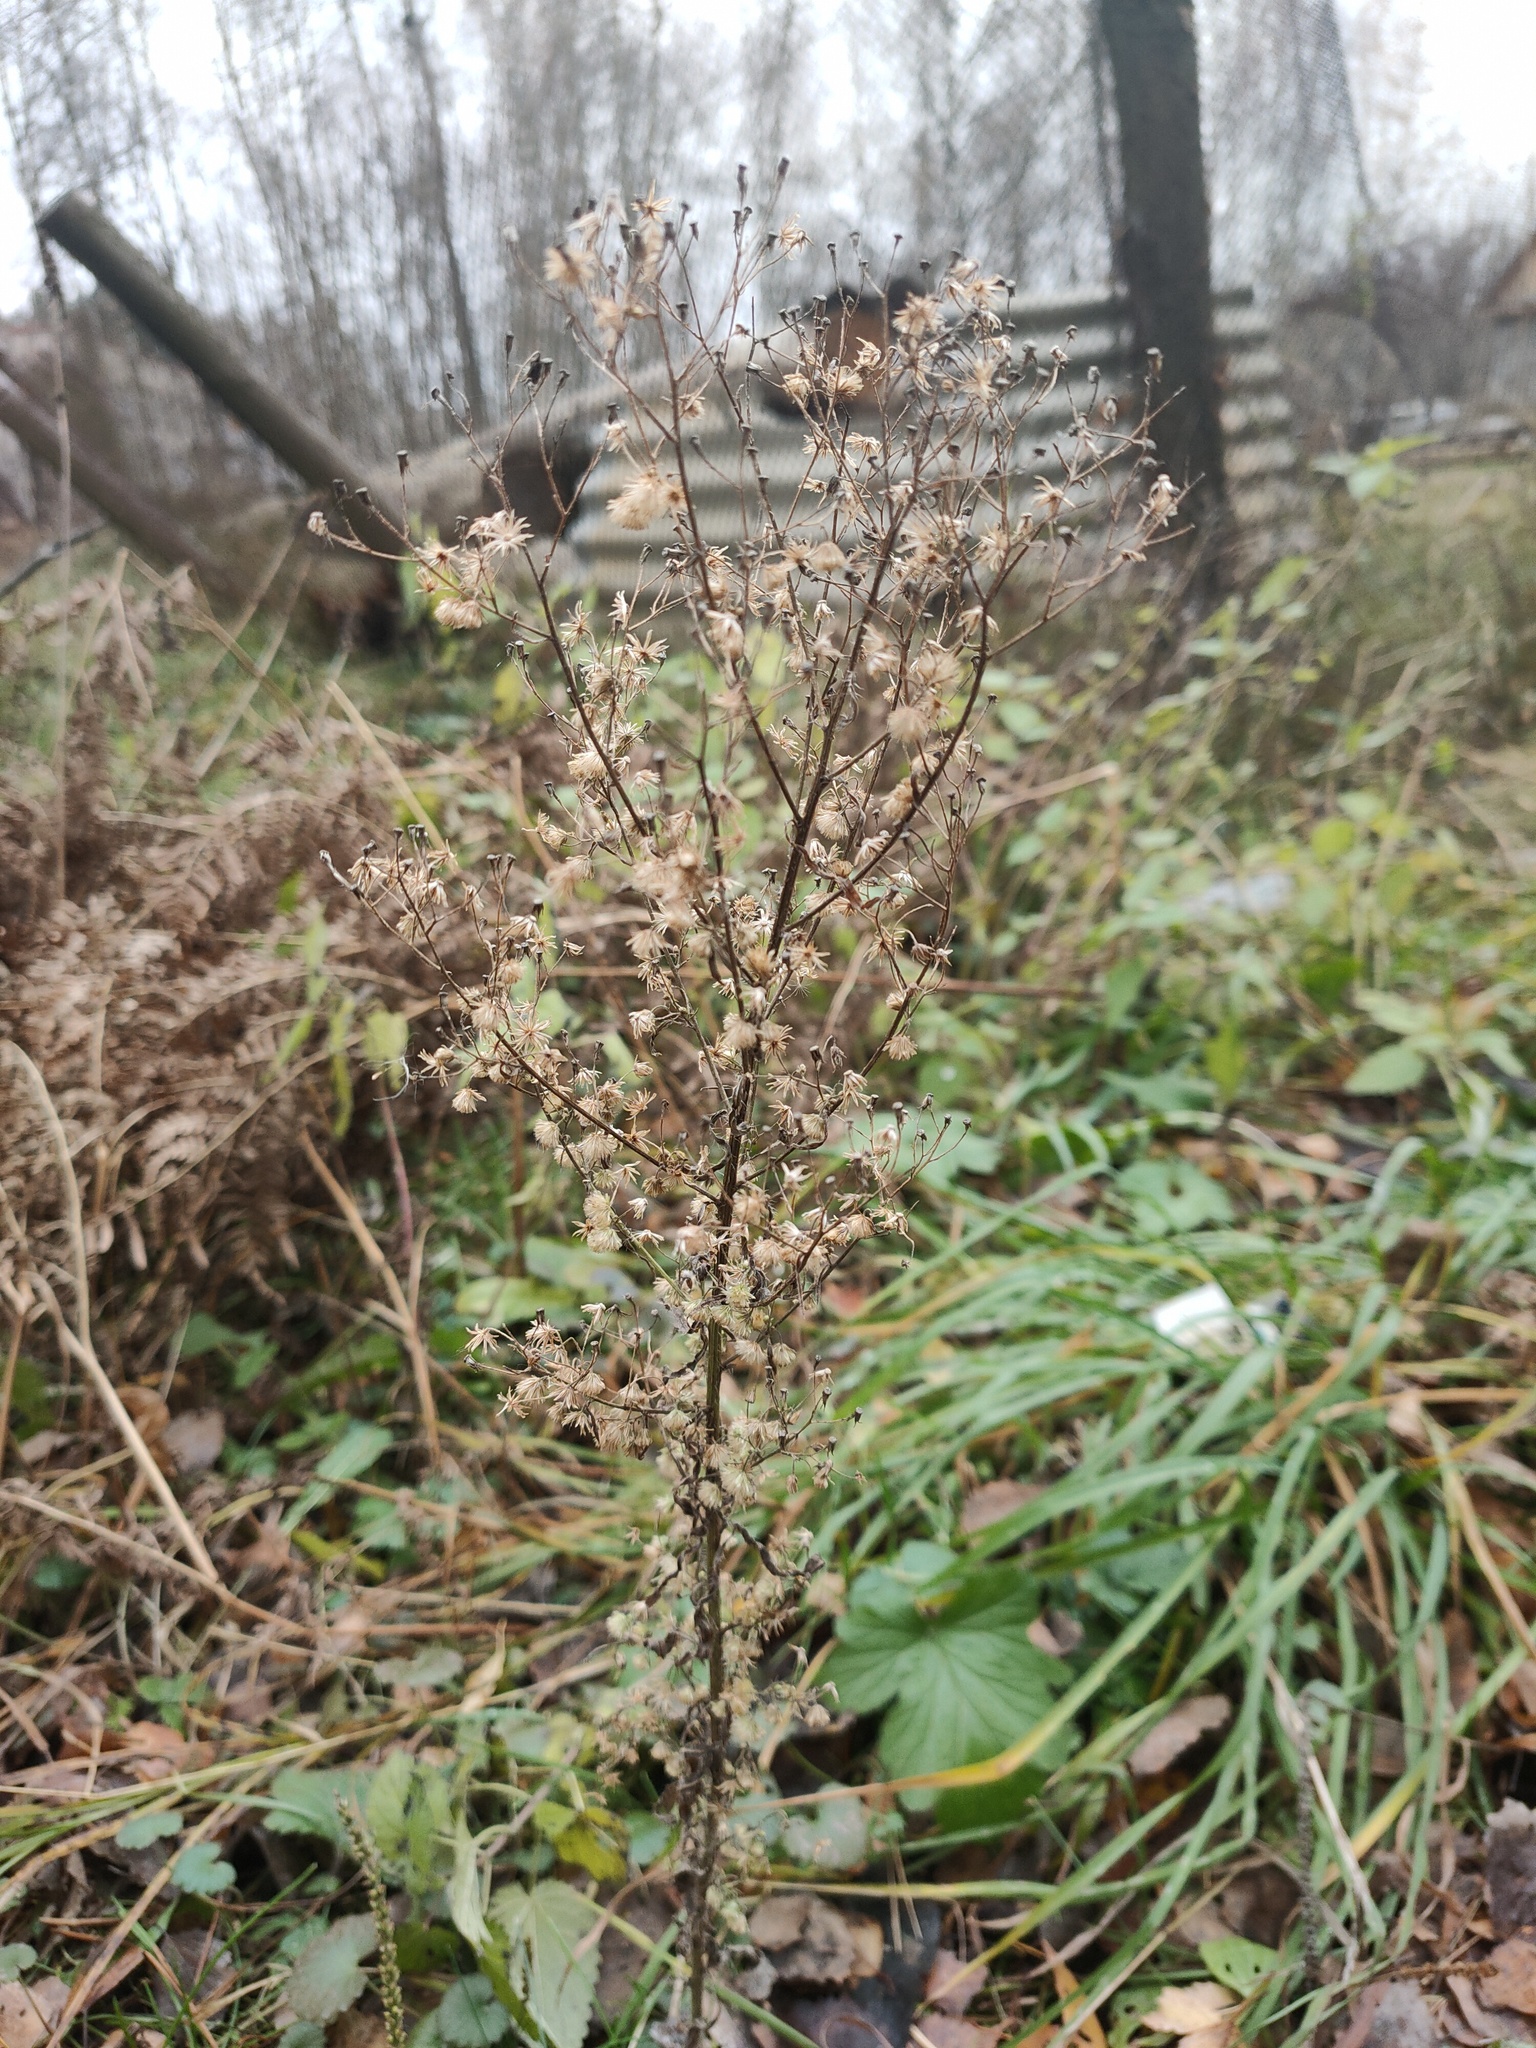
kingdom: Plantae
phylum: Tracheophyta
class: Magnoliopsida
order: Asterales
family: Asteraceae
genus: Erigeron
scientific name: Erigeron canadensis
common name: Canadian fleabane
